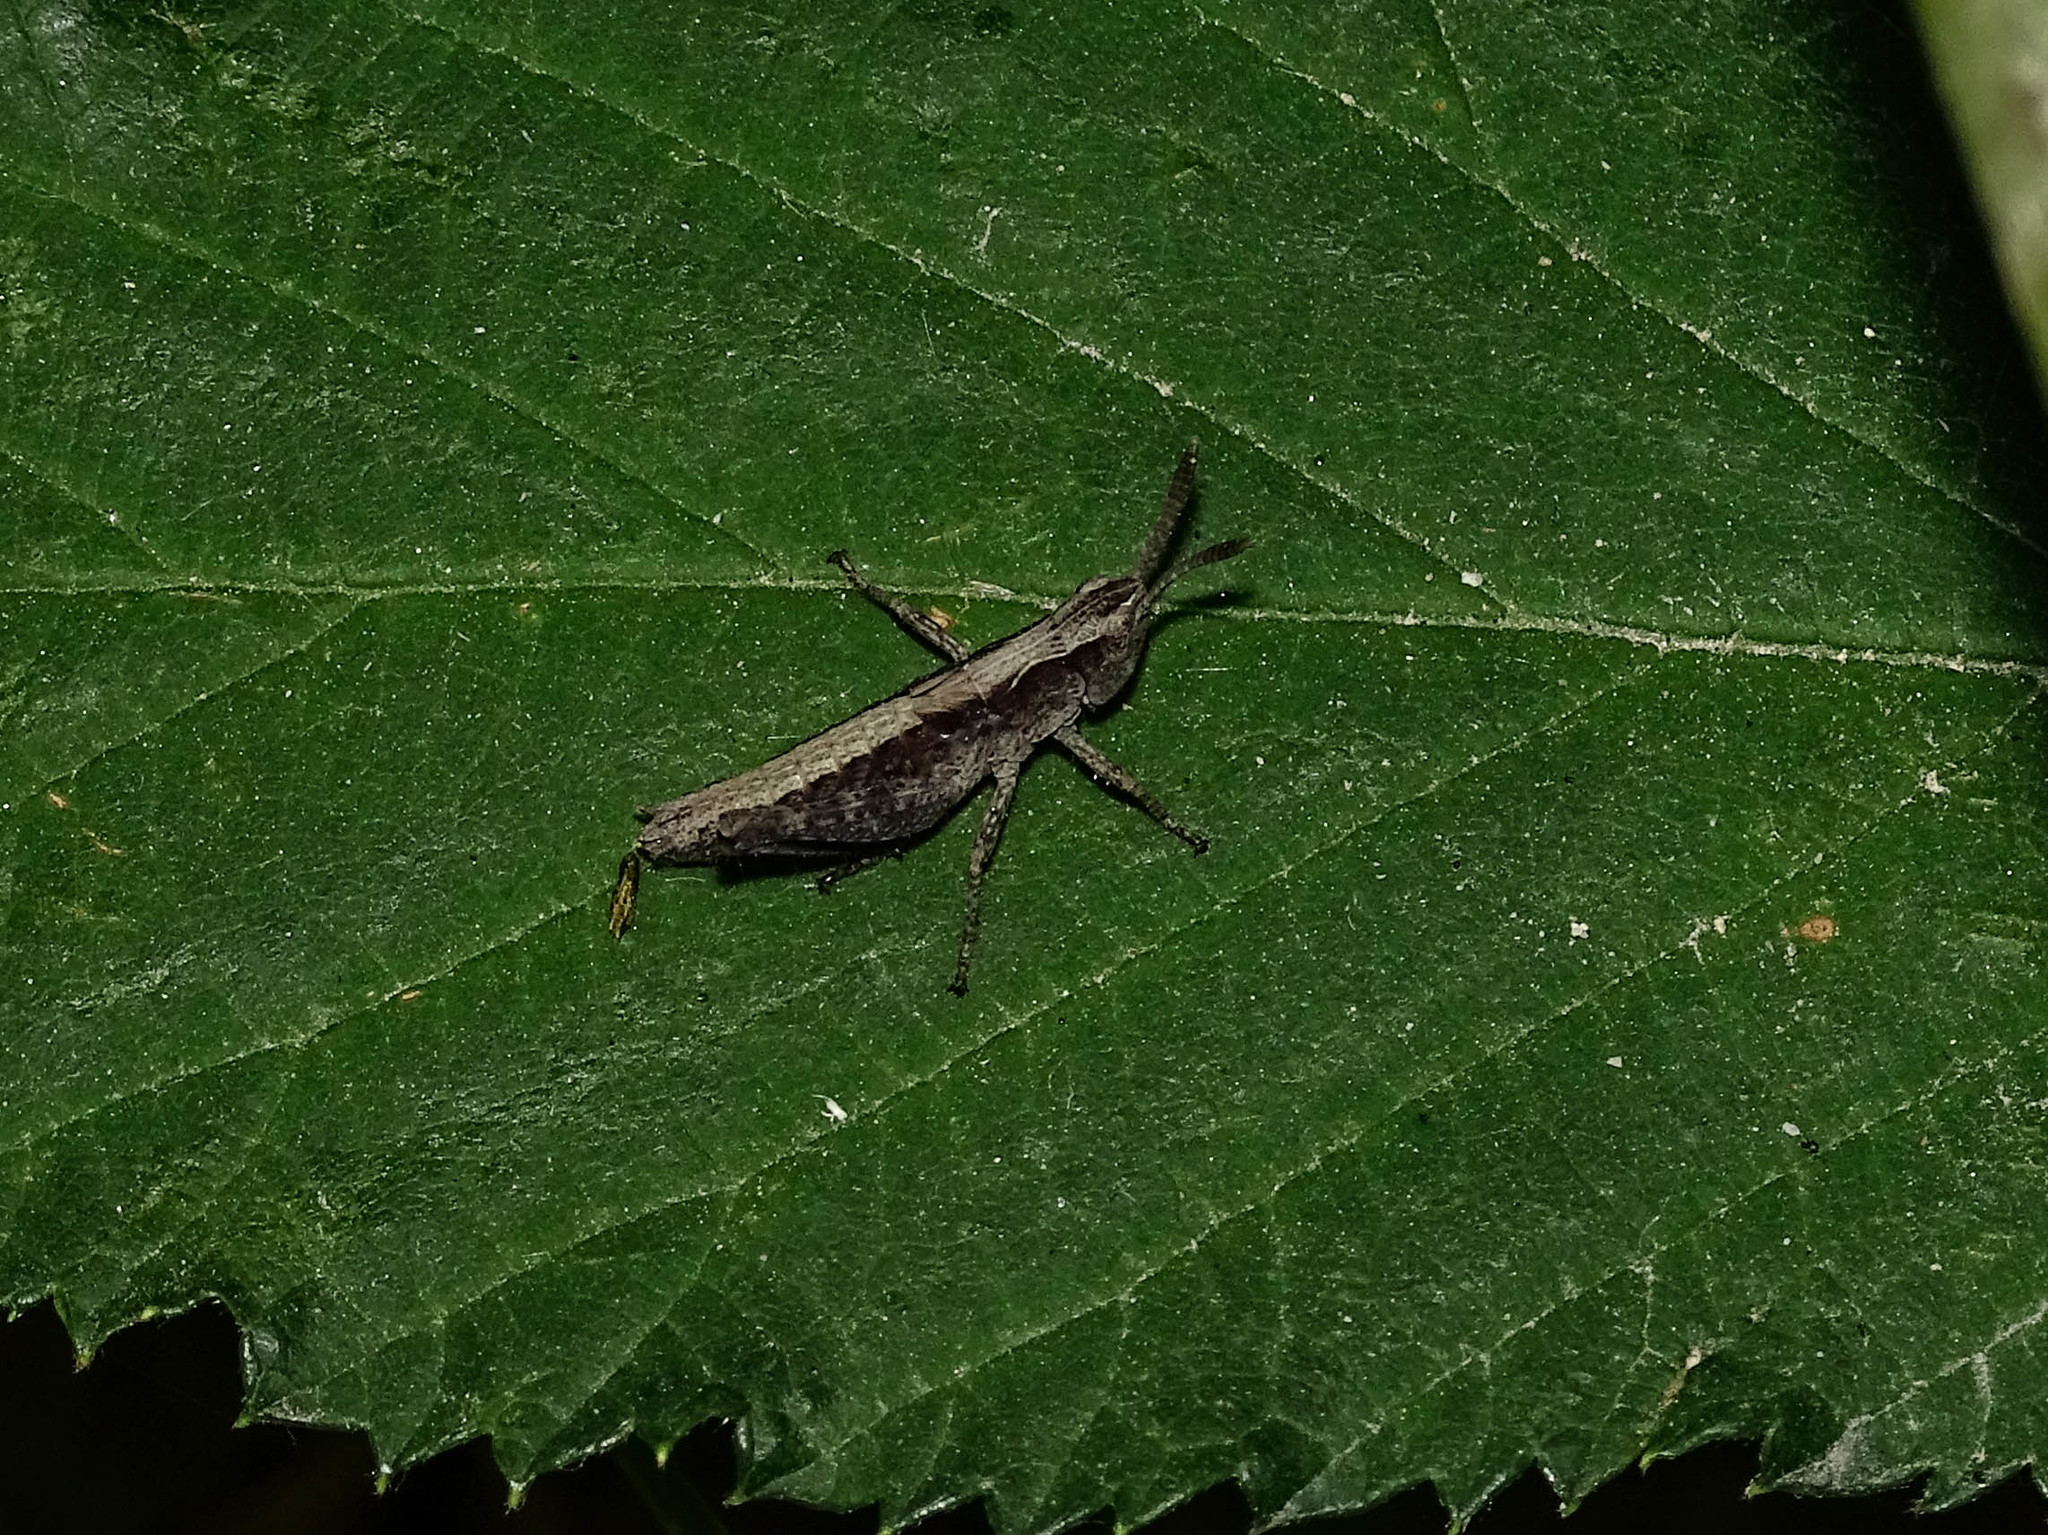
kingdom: Animalia
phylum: Arthropoda
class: Insecta
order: Orthoptera
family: Acrididae
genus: Pseudochorthippus
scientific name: Pseudochorthippus parallelus
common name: Meadow grasshopper
